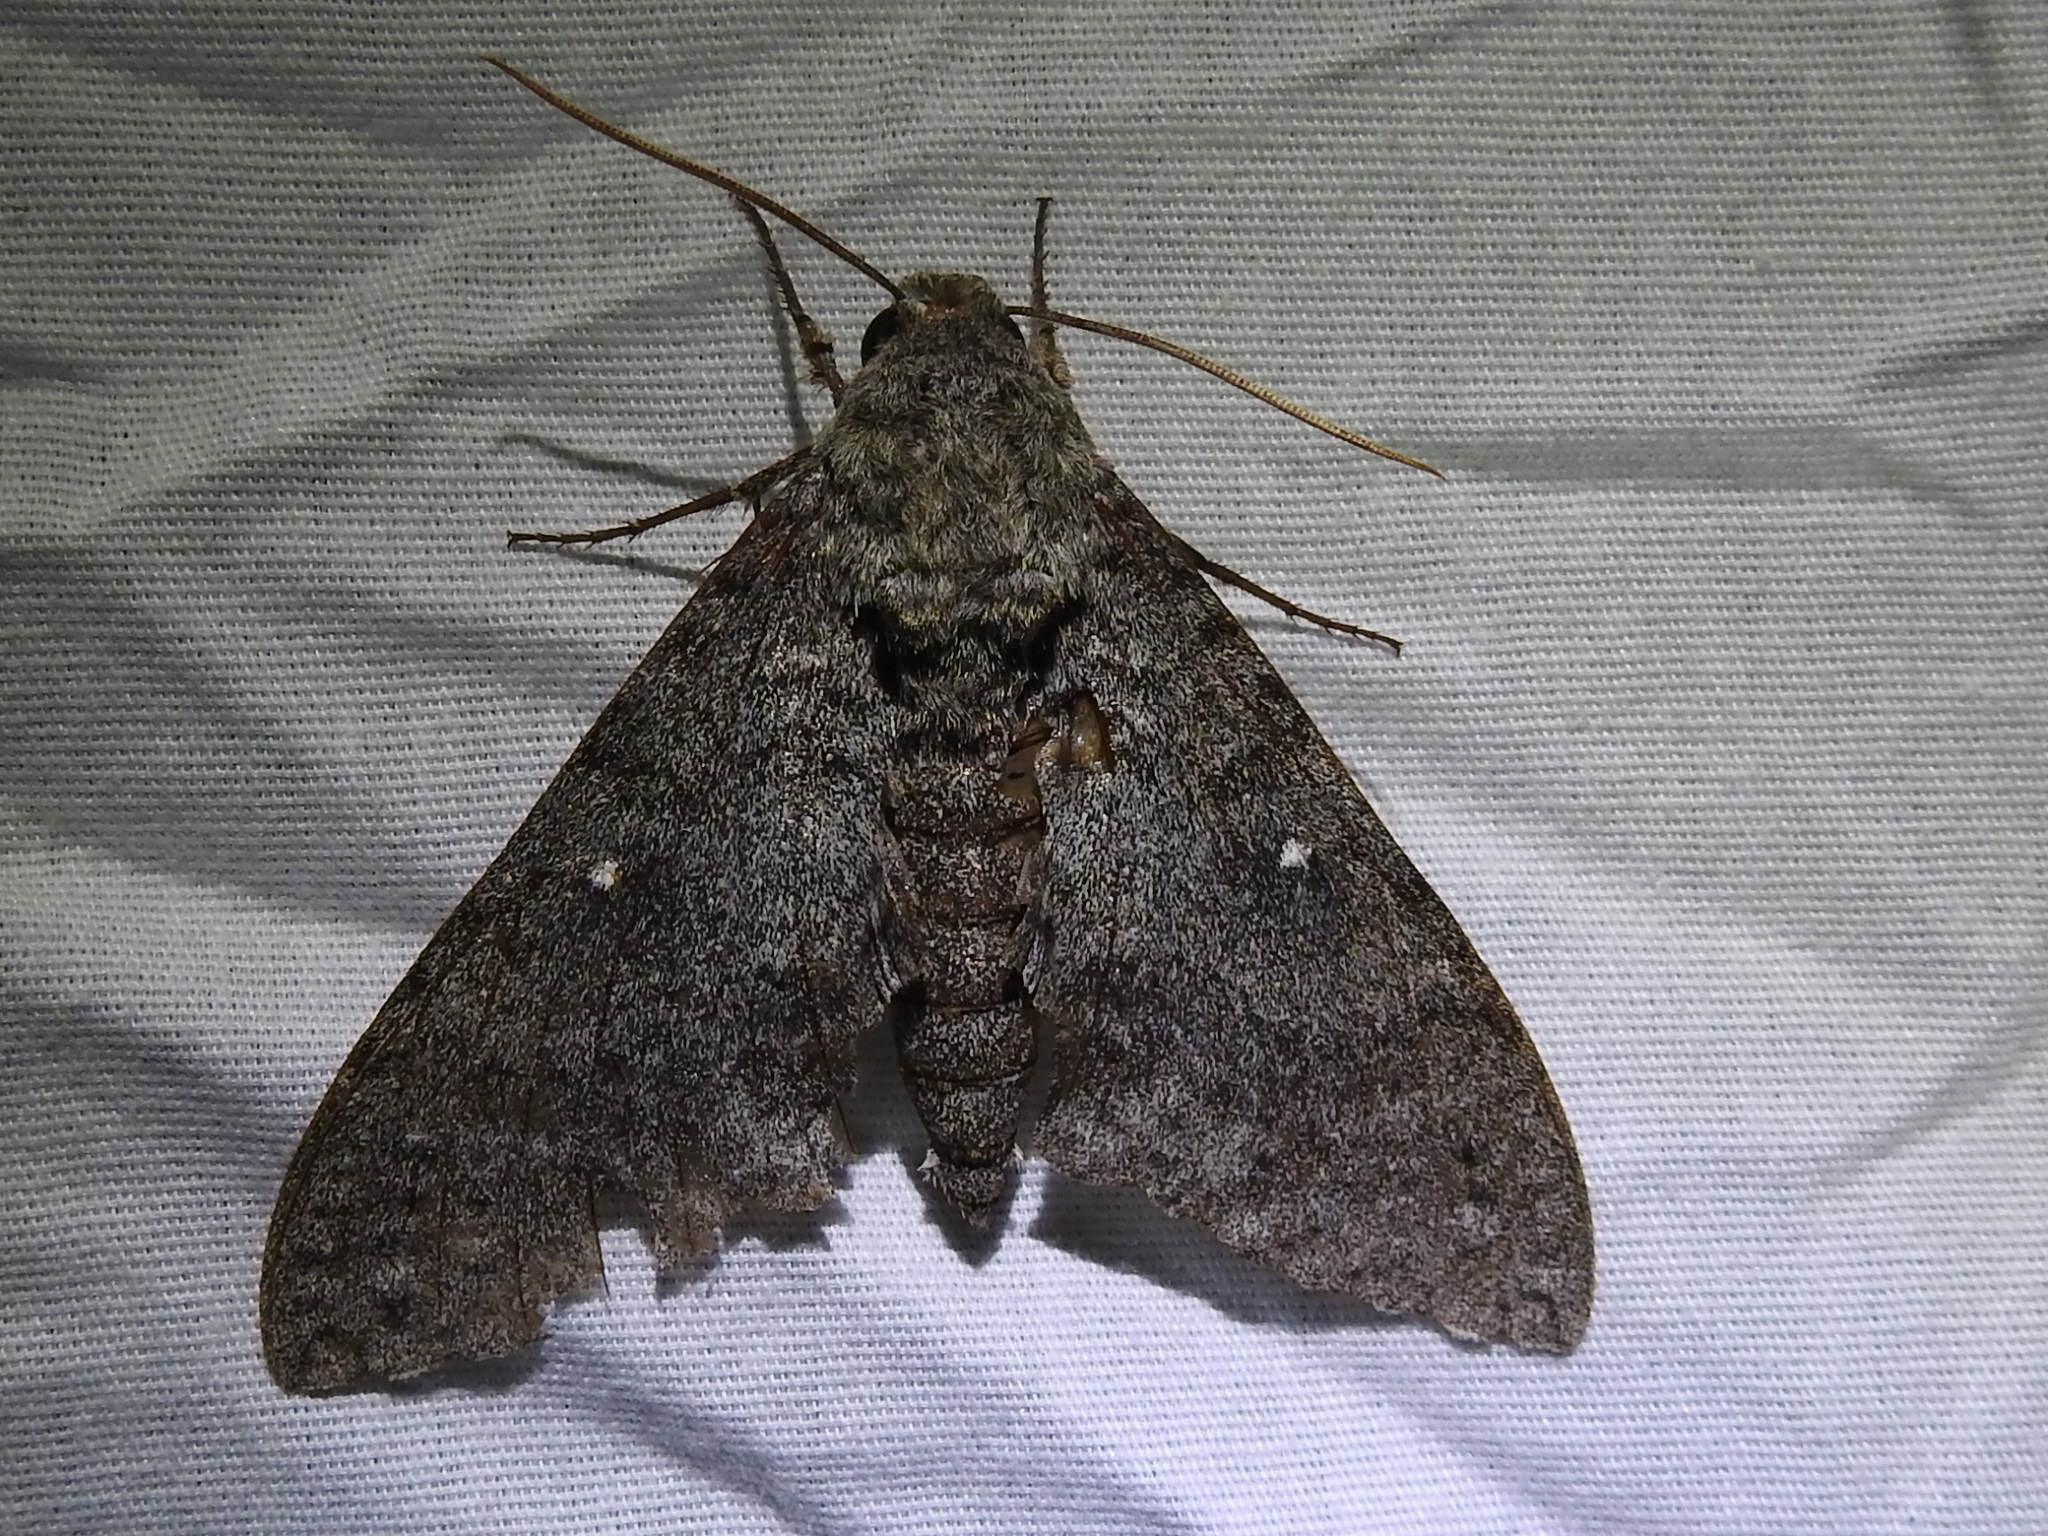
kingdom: Animalia
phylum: Arthropoda
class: Insecta
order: Lepidoptera
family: Sphingidae
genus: Manduca
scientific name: Manduca muscosa
